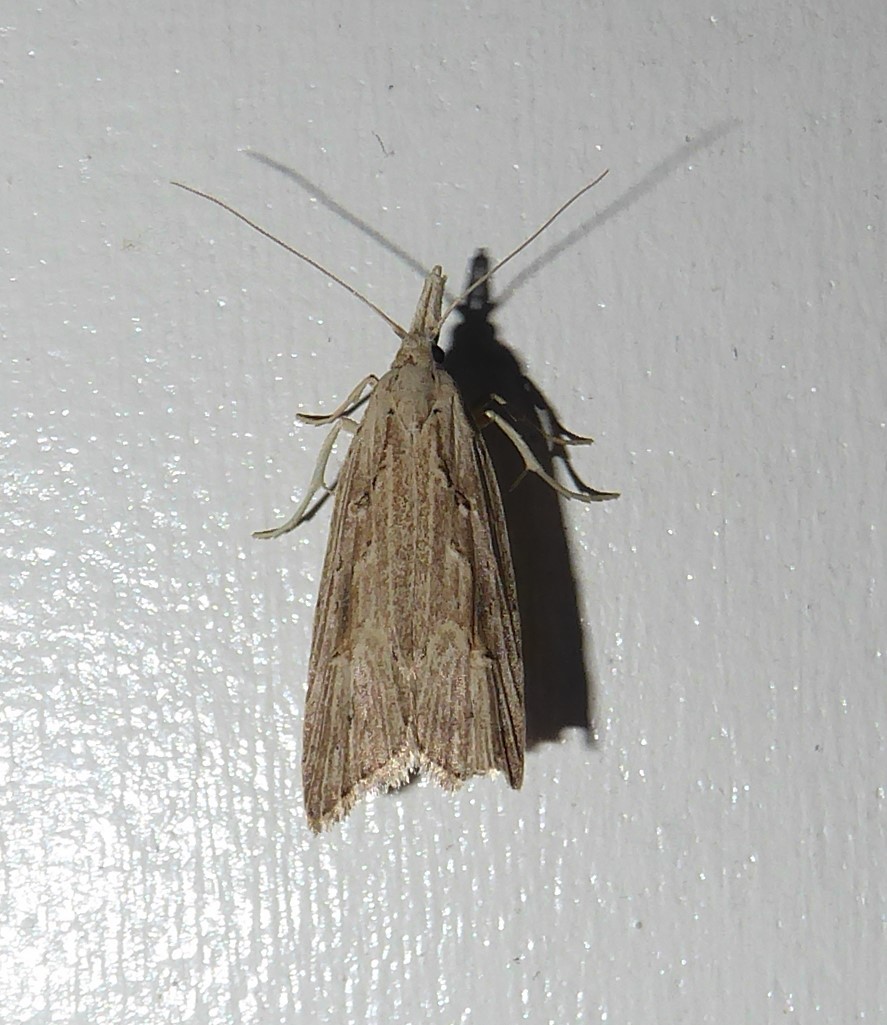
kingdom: Animalia
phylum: Arthropoda
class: Insecta
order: Lepidoptera
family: Carposinidae
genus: Carposina
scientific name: Carposina Heterocrossa exochana
